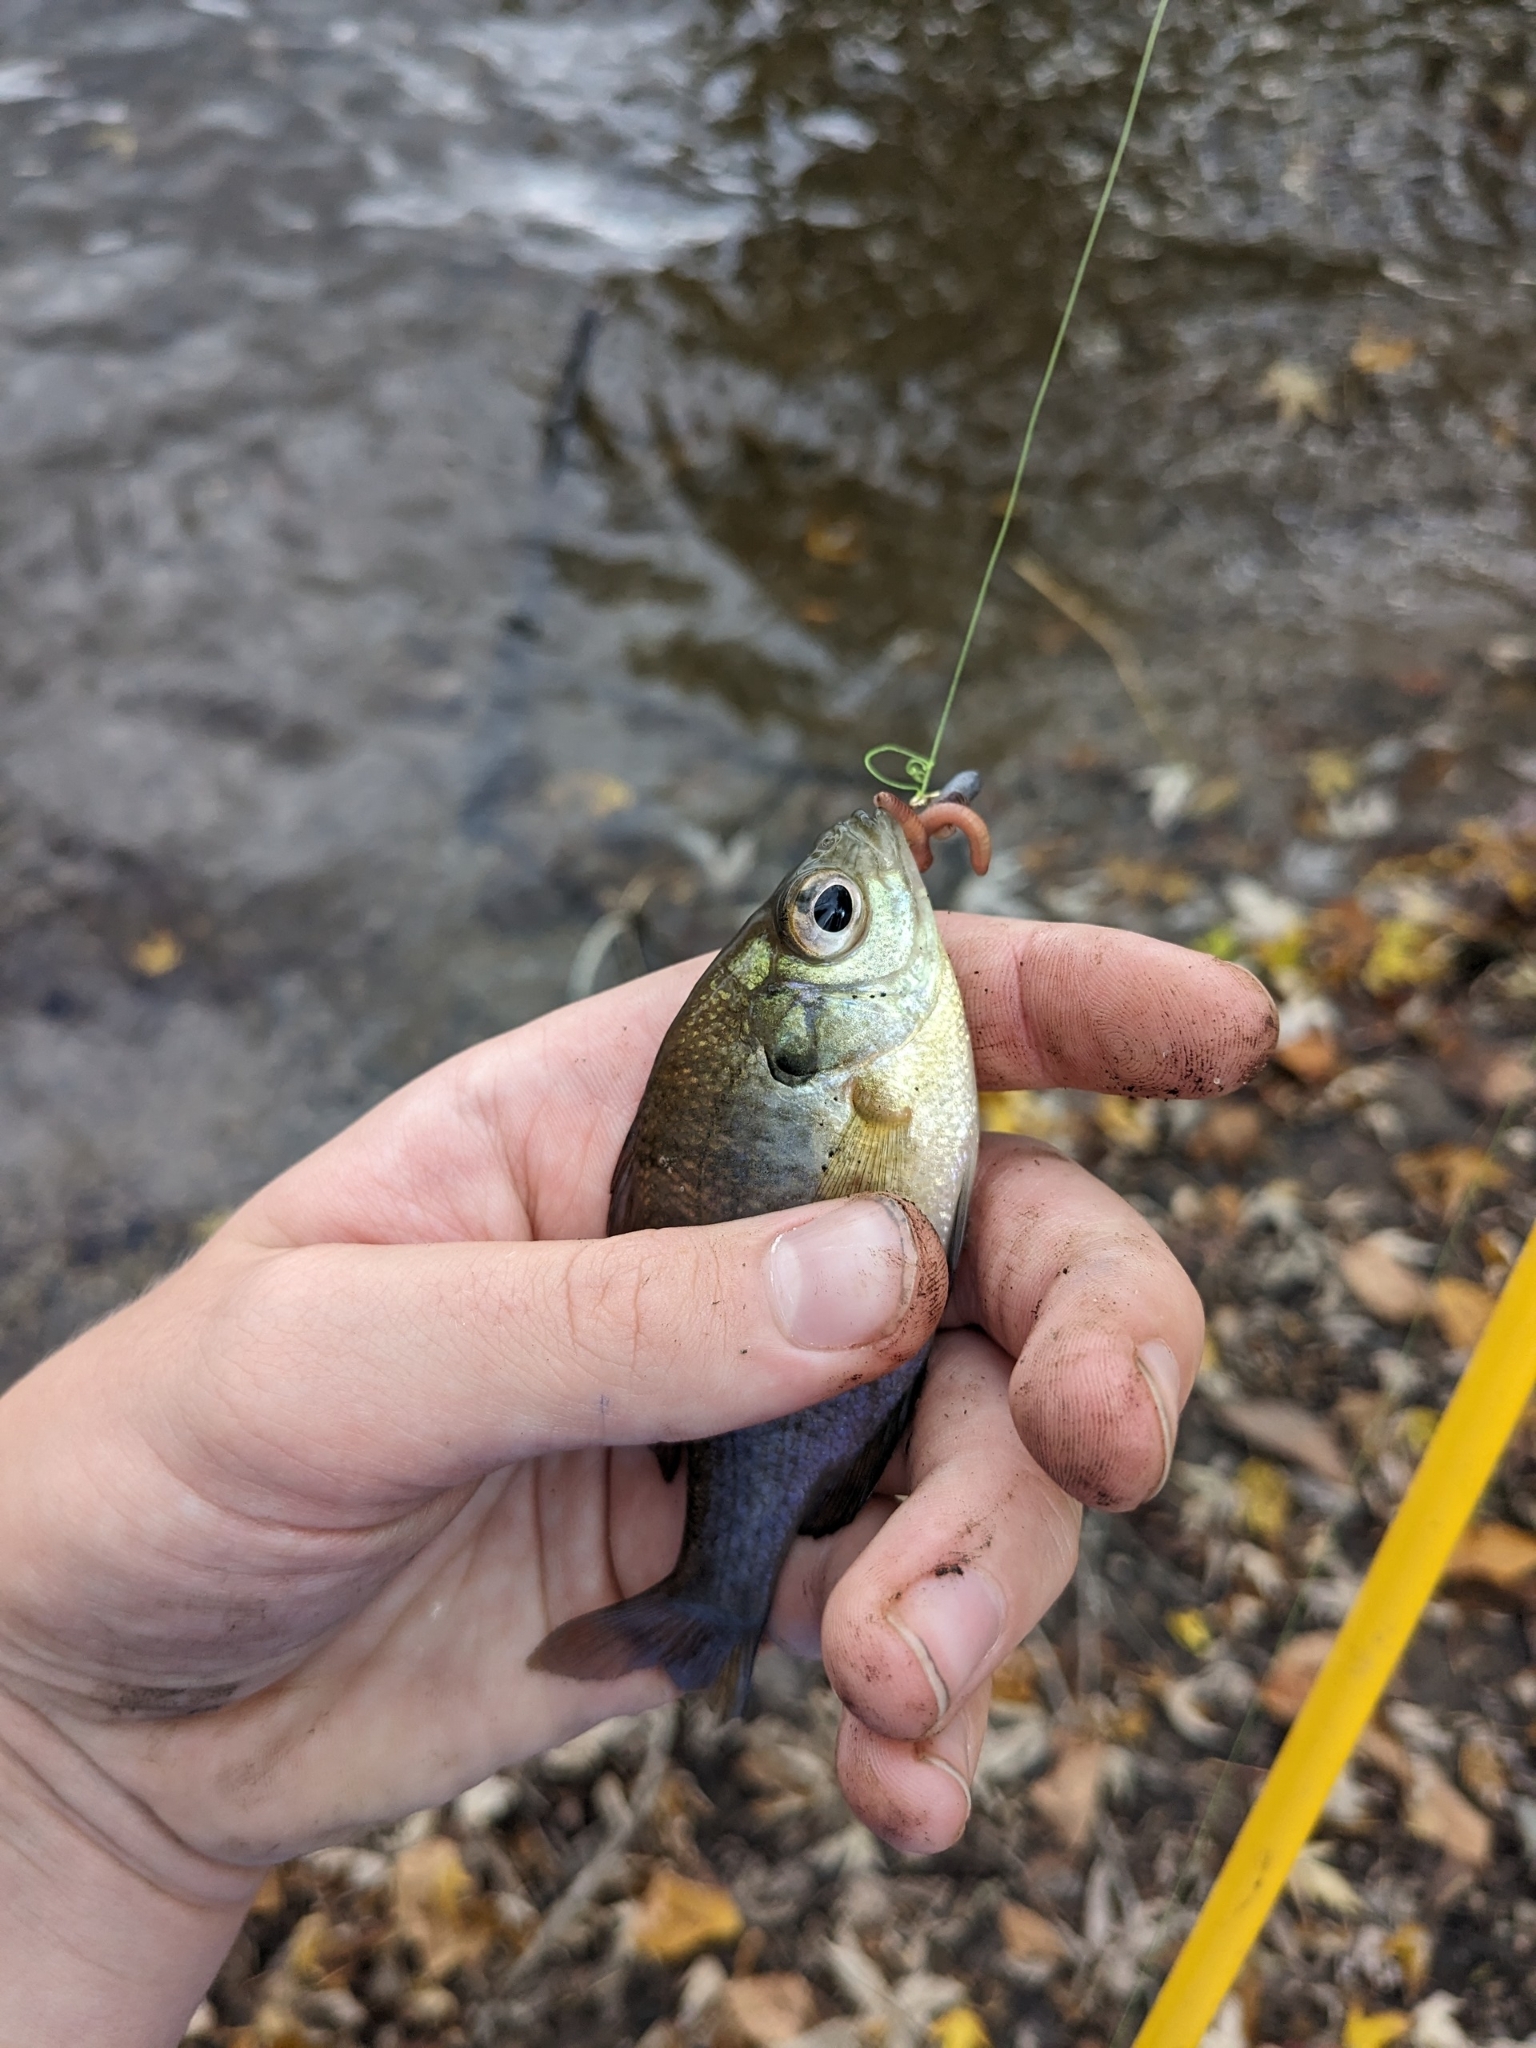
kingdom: Animalia
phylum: Chordata
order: Perciformes
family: Centrarchidae
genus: Lepomis
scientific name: Lepomis macrochirus
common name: Bluegill
